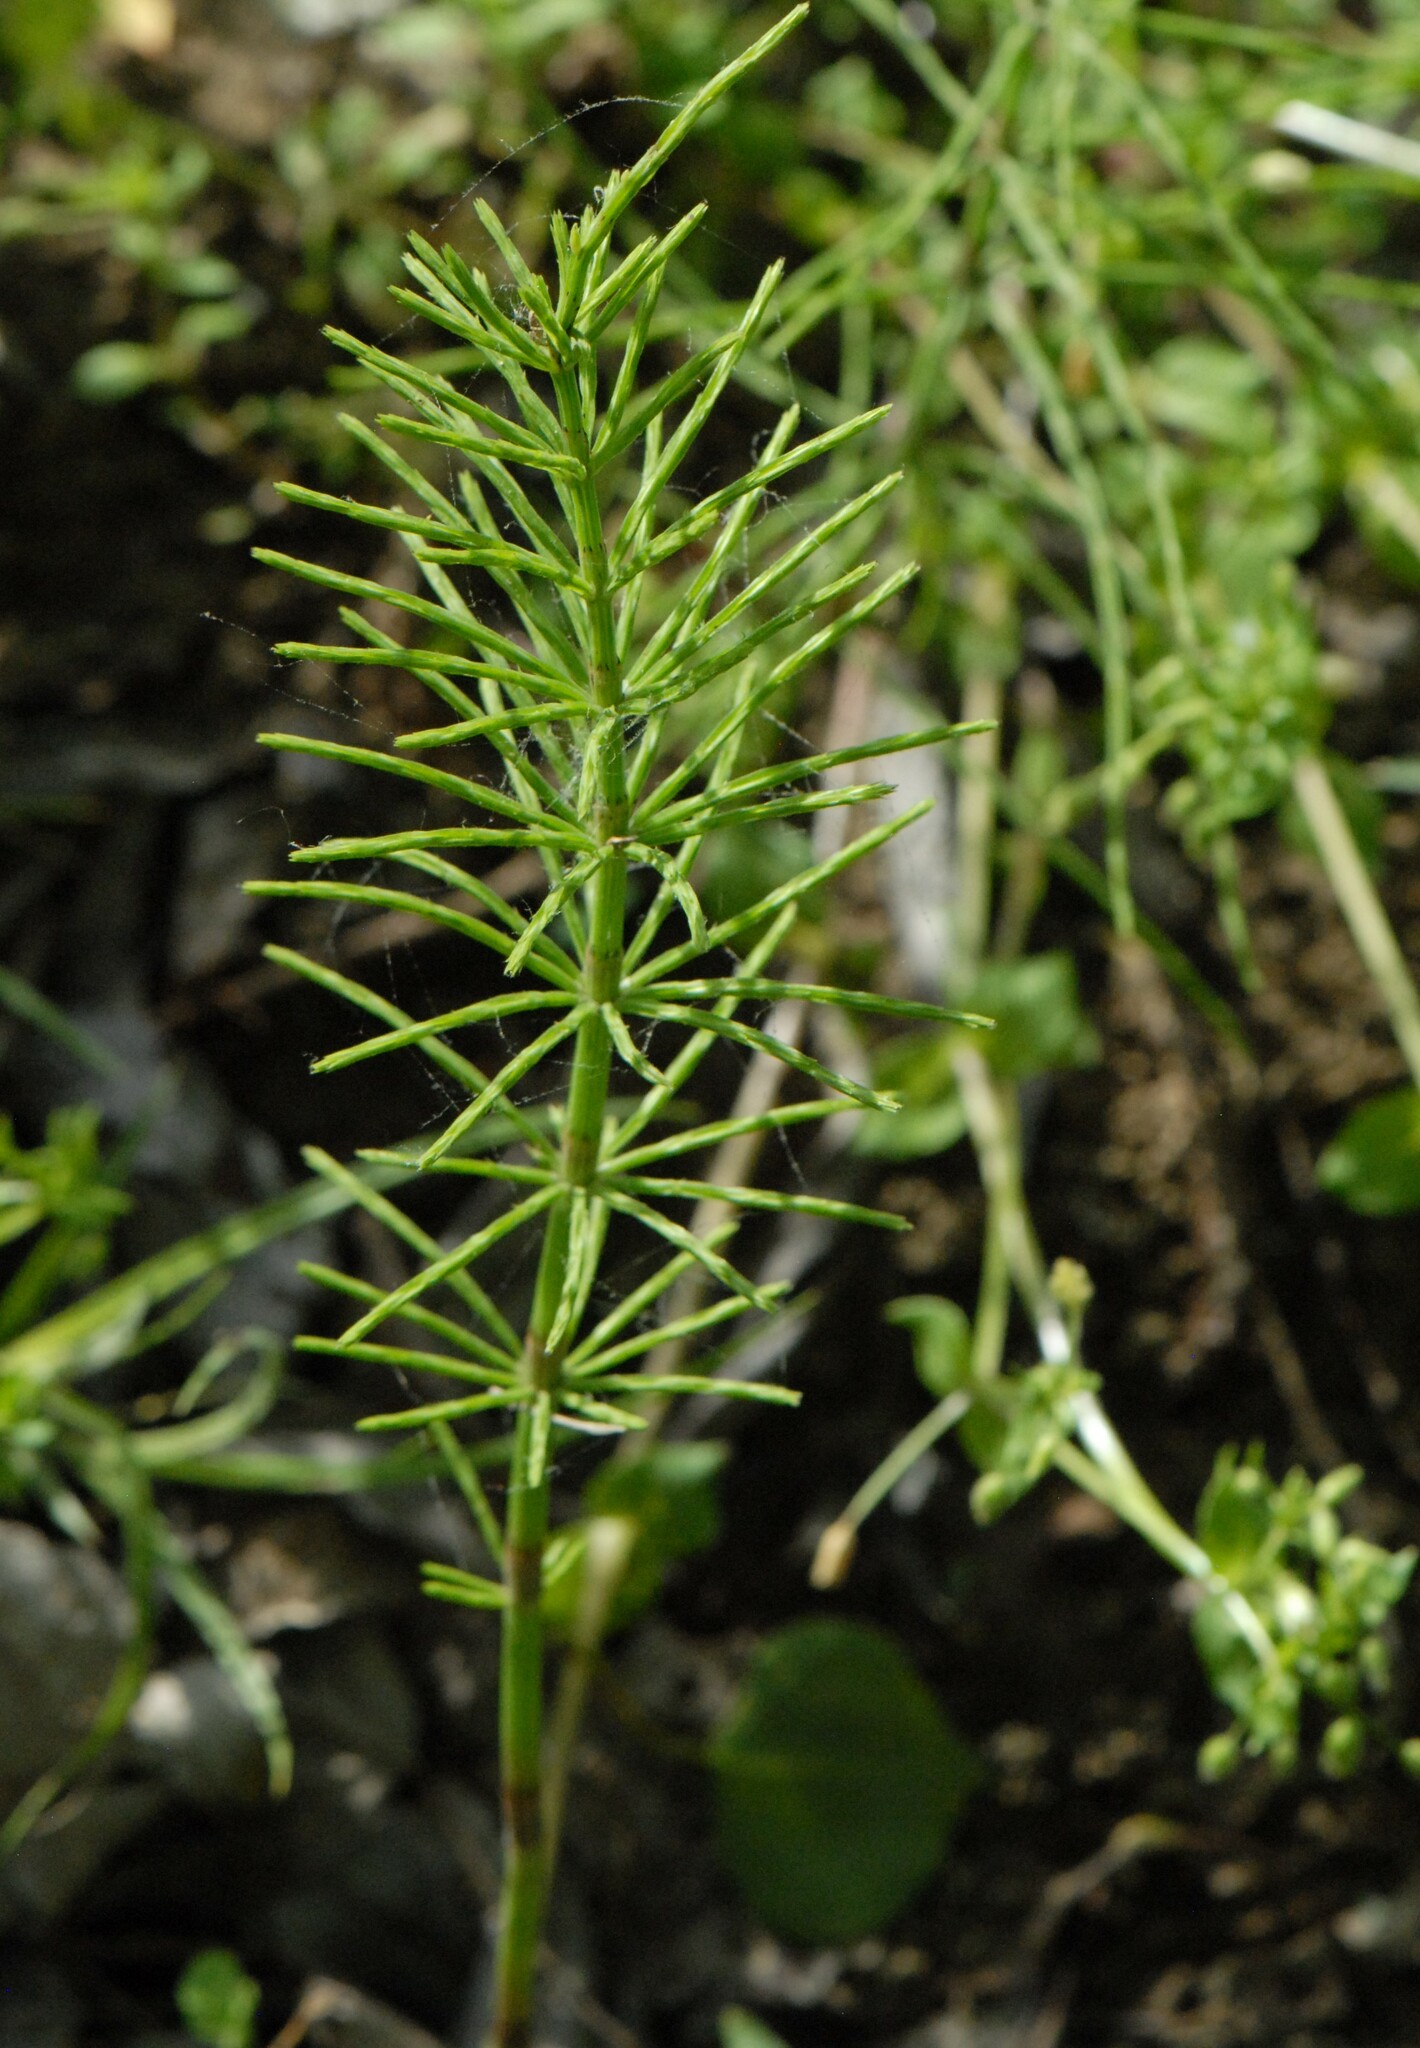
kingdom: Plantae
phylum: Tracheophyta
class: Polypodiopsida
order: Equisetales
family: Equisetaceae
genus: Equisetum
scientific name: Equisetum arvense
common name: Field horsetail
